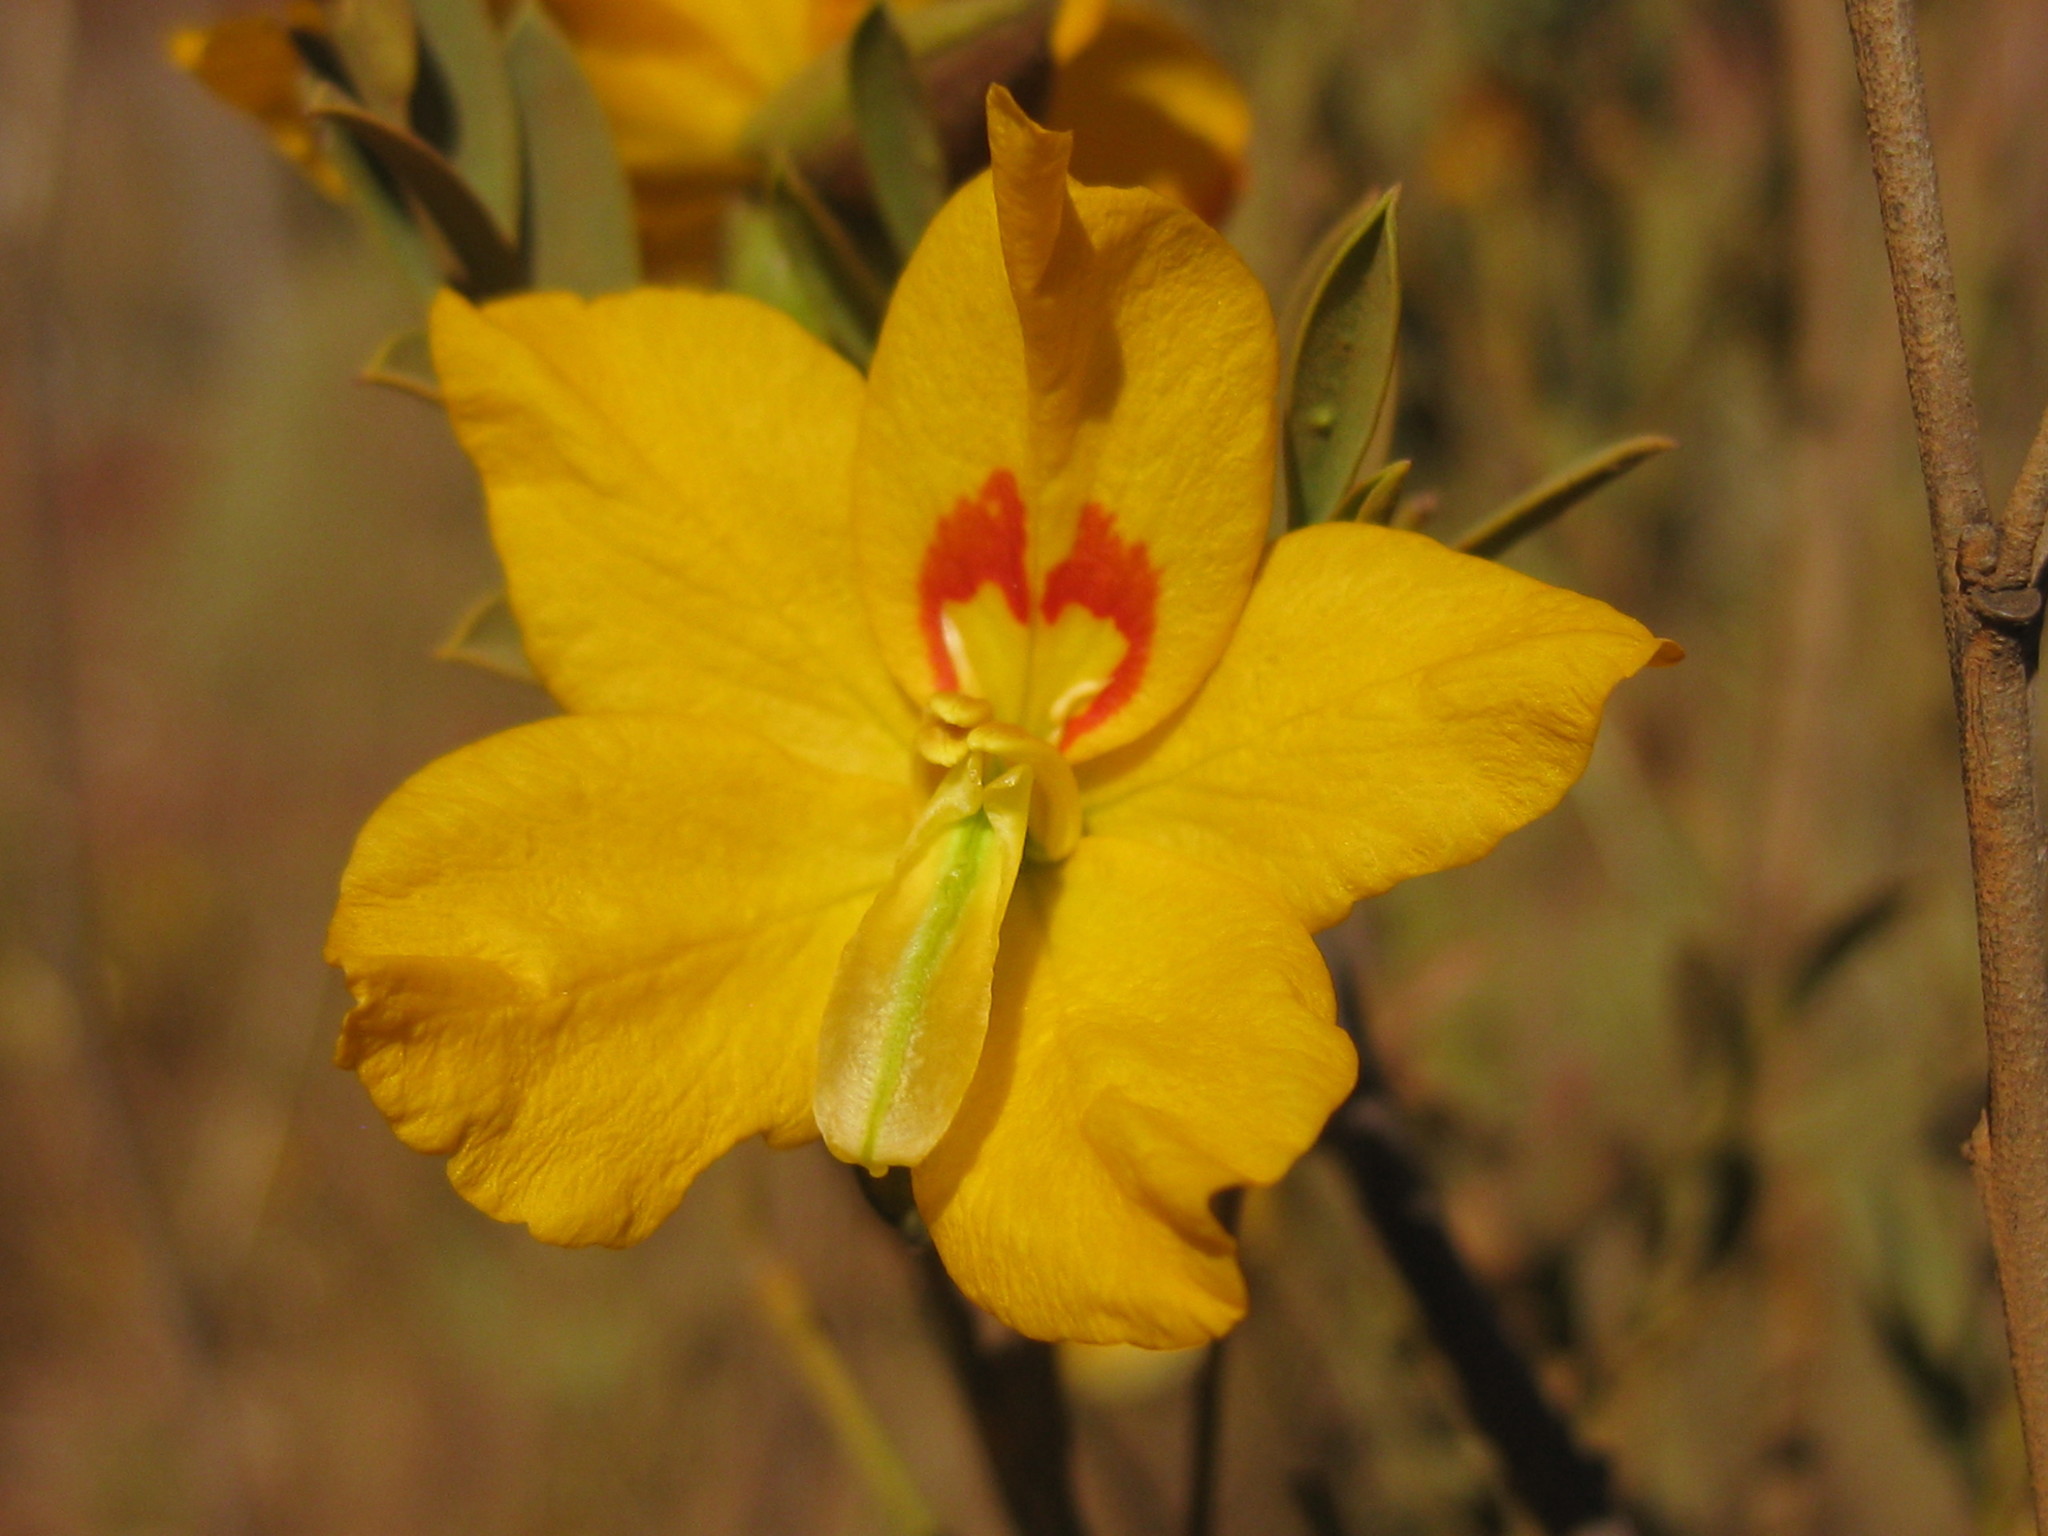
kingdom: Plantae
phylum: Tracheophyta
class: Magnoliopsida
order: Fabales
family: Fabaceae
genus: Petalostylis
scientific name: Petalostylis labicheoides
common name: Butterfly bush
